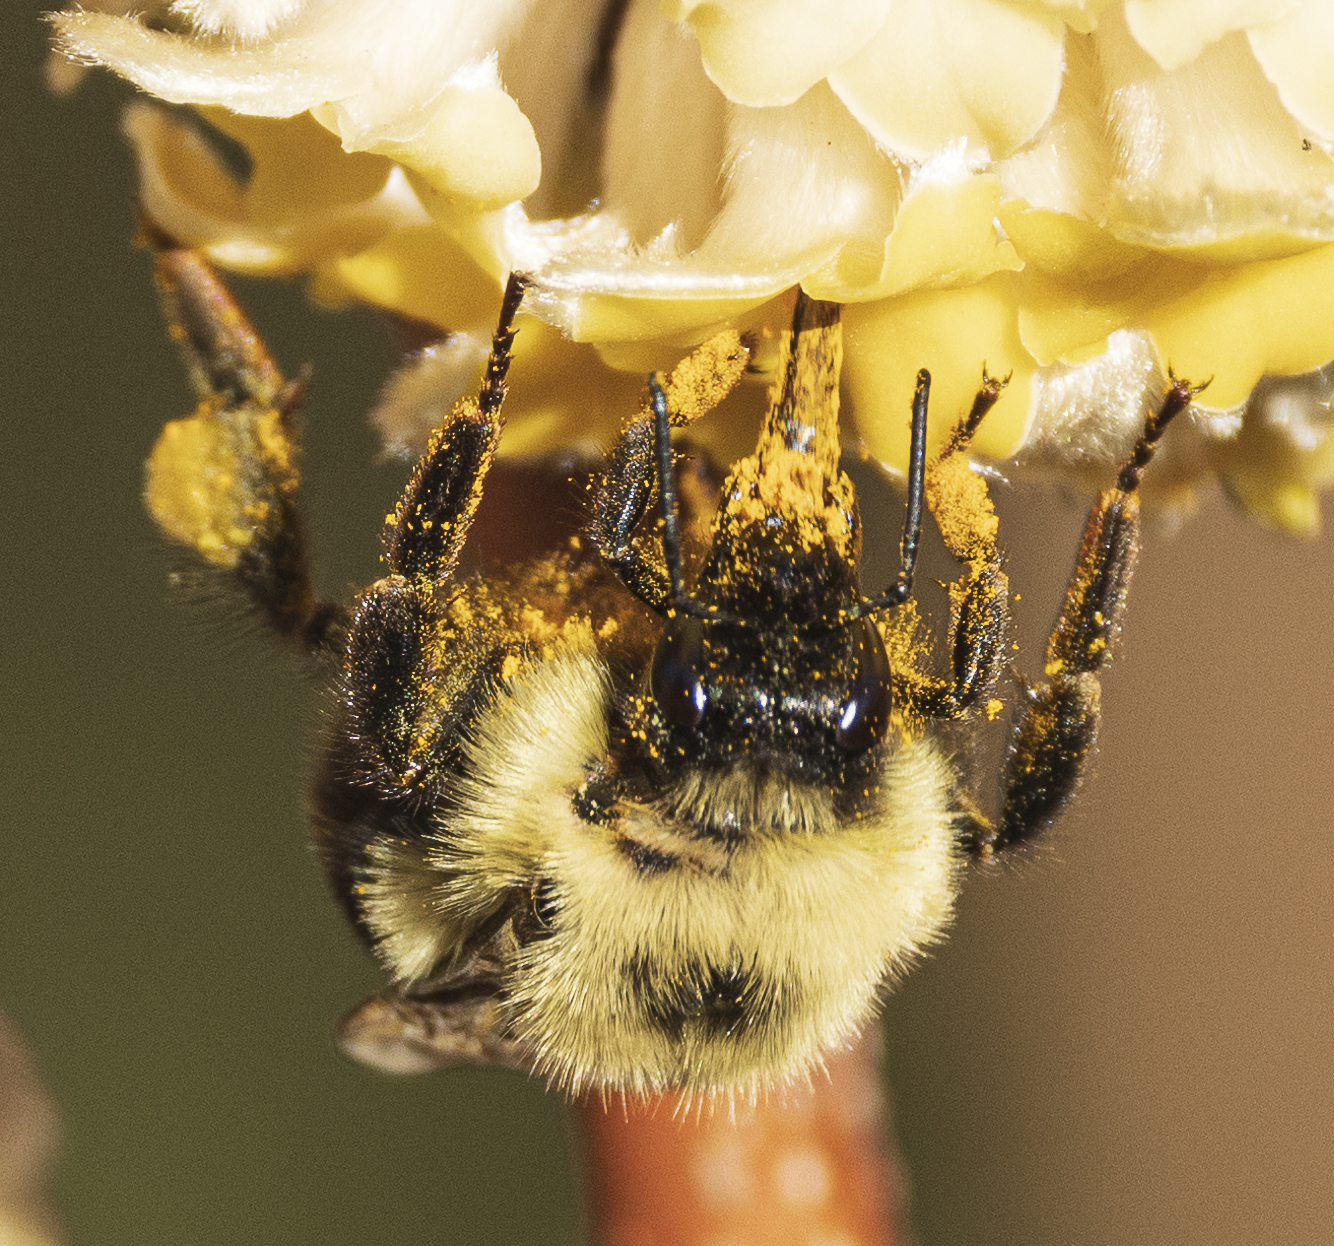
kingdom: Animalia
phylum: Arthropoda
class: Insecta
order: Hymenoptera
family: Apidae
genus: Bombus
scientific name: Bombus bimaculatus
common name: Two-spotted bumble bee
